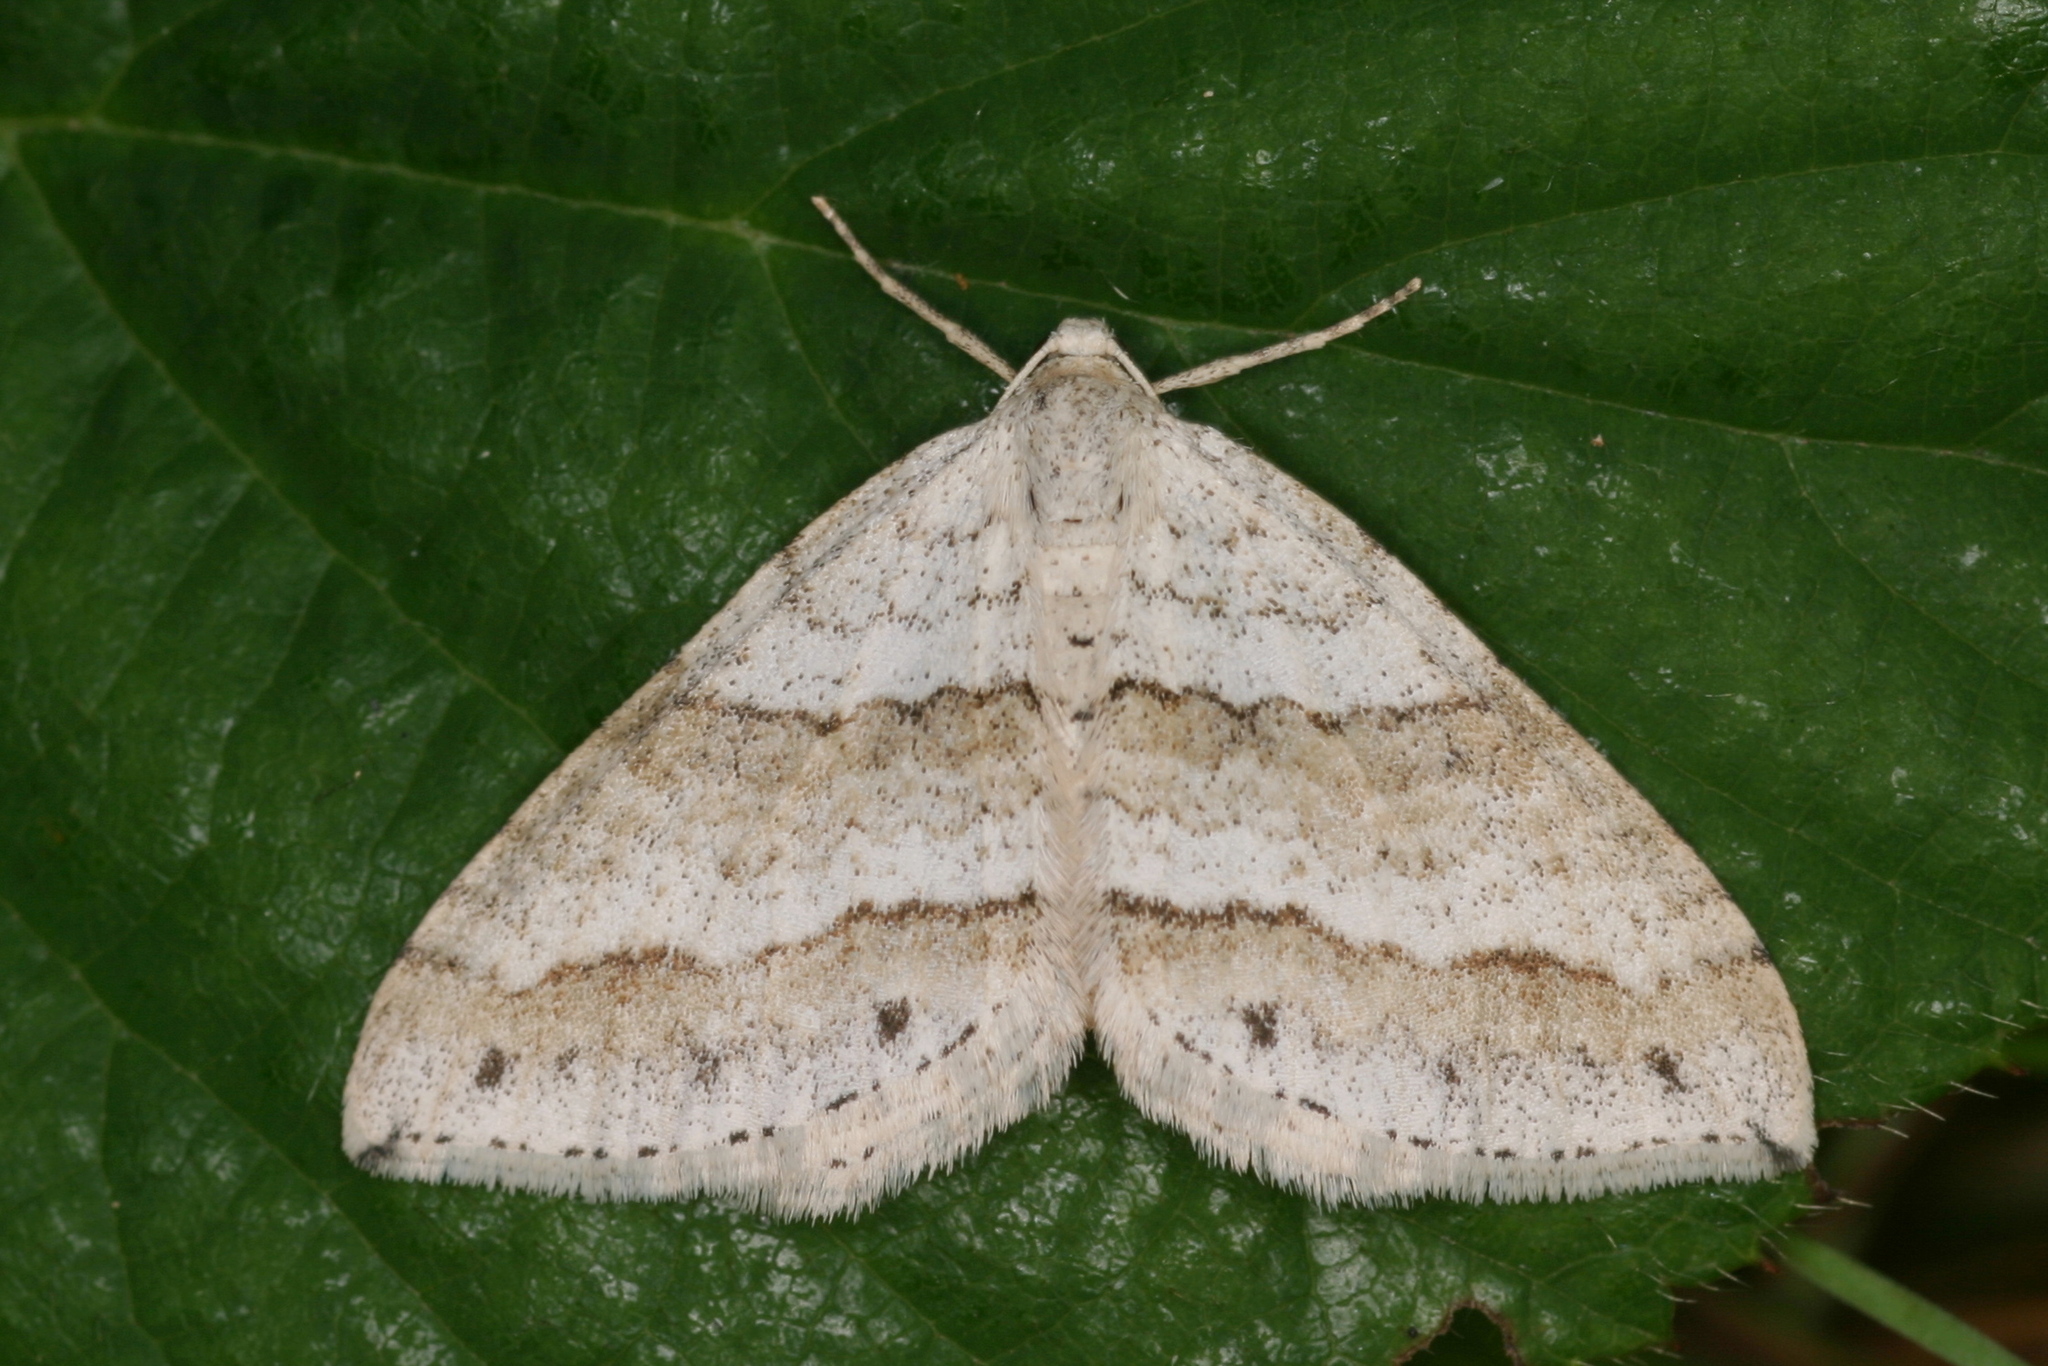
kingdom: Animalia
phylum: Arthropoda
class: Insecta
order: Lepidoptera
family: Geometridae
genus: Perizoma
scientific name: Perizoma parallelolineata
